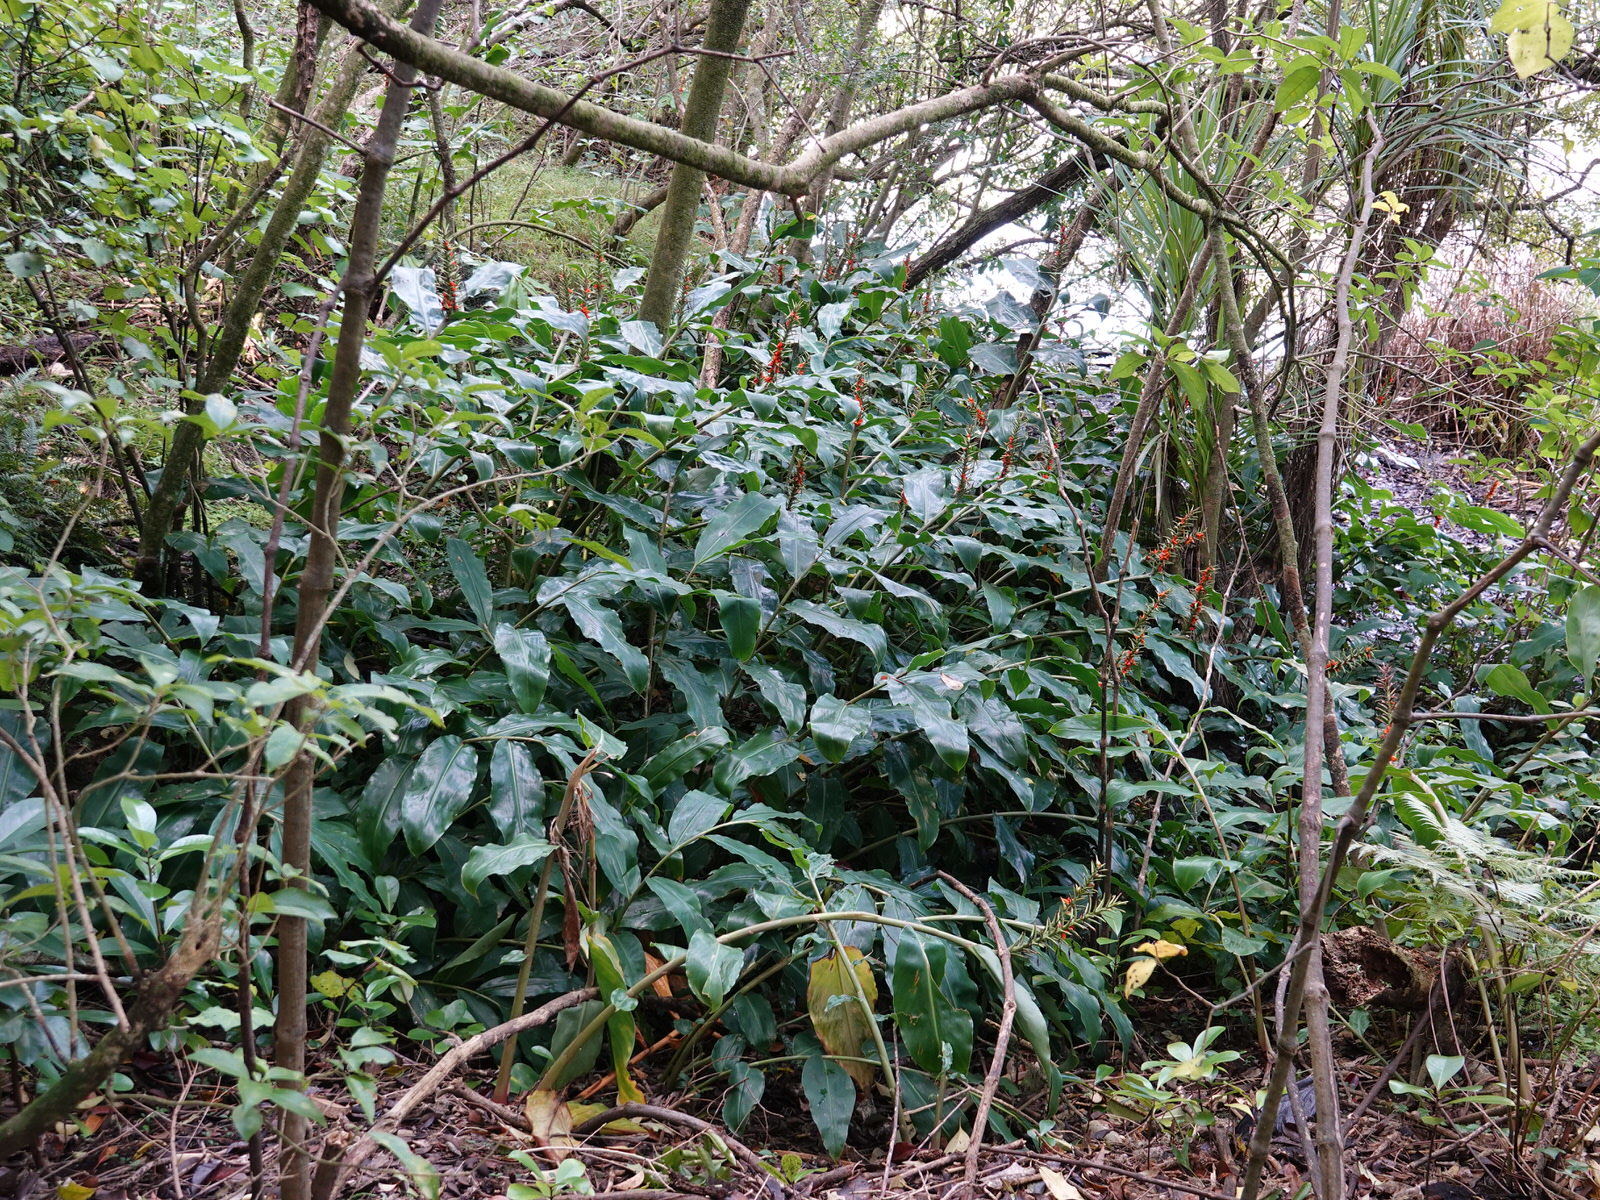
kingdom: Plantae
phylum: Tracheophyta
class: Liliopsida
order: Zingiberales
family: Zingiberaceae
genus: Hedychium
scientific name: Hedychium gardnerianum
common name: Himalayan ginger
